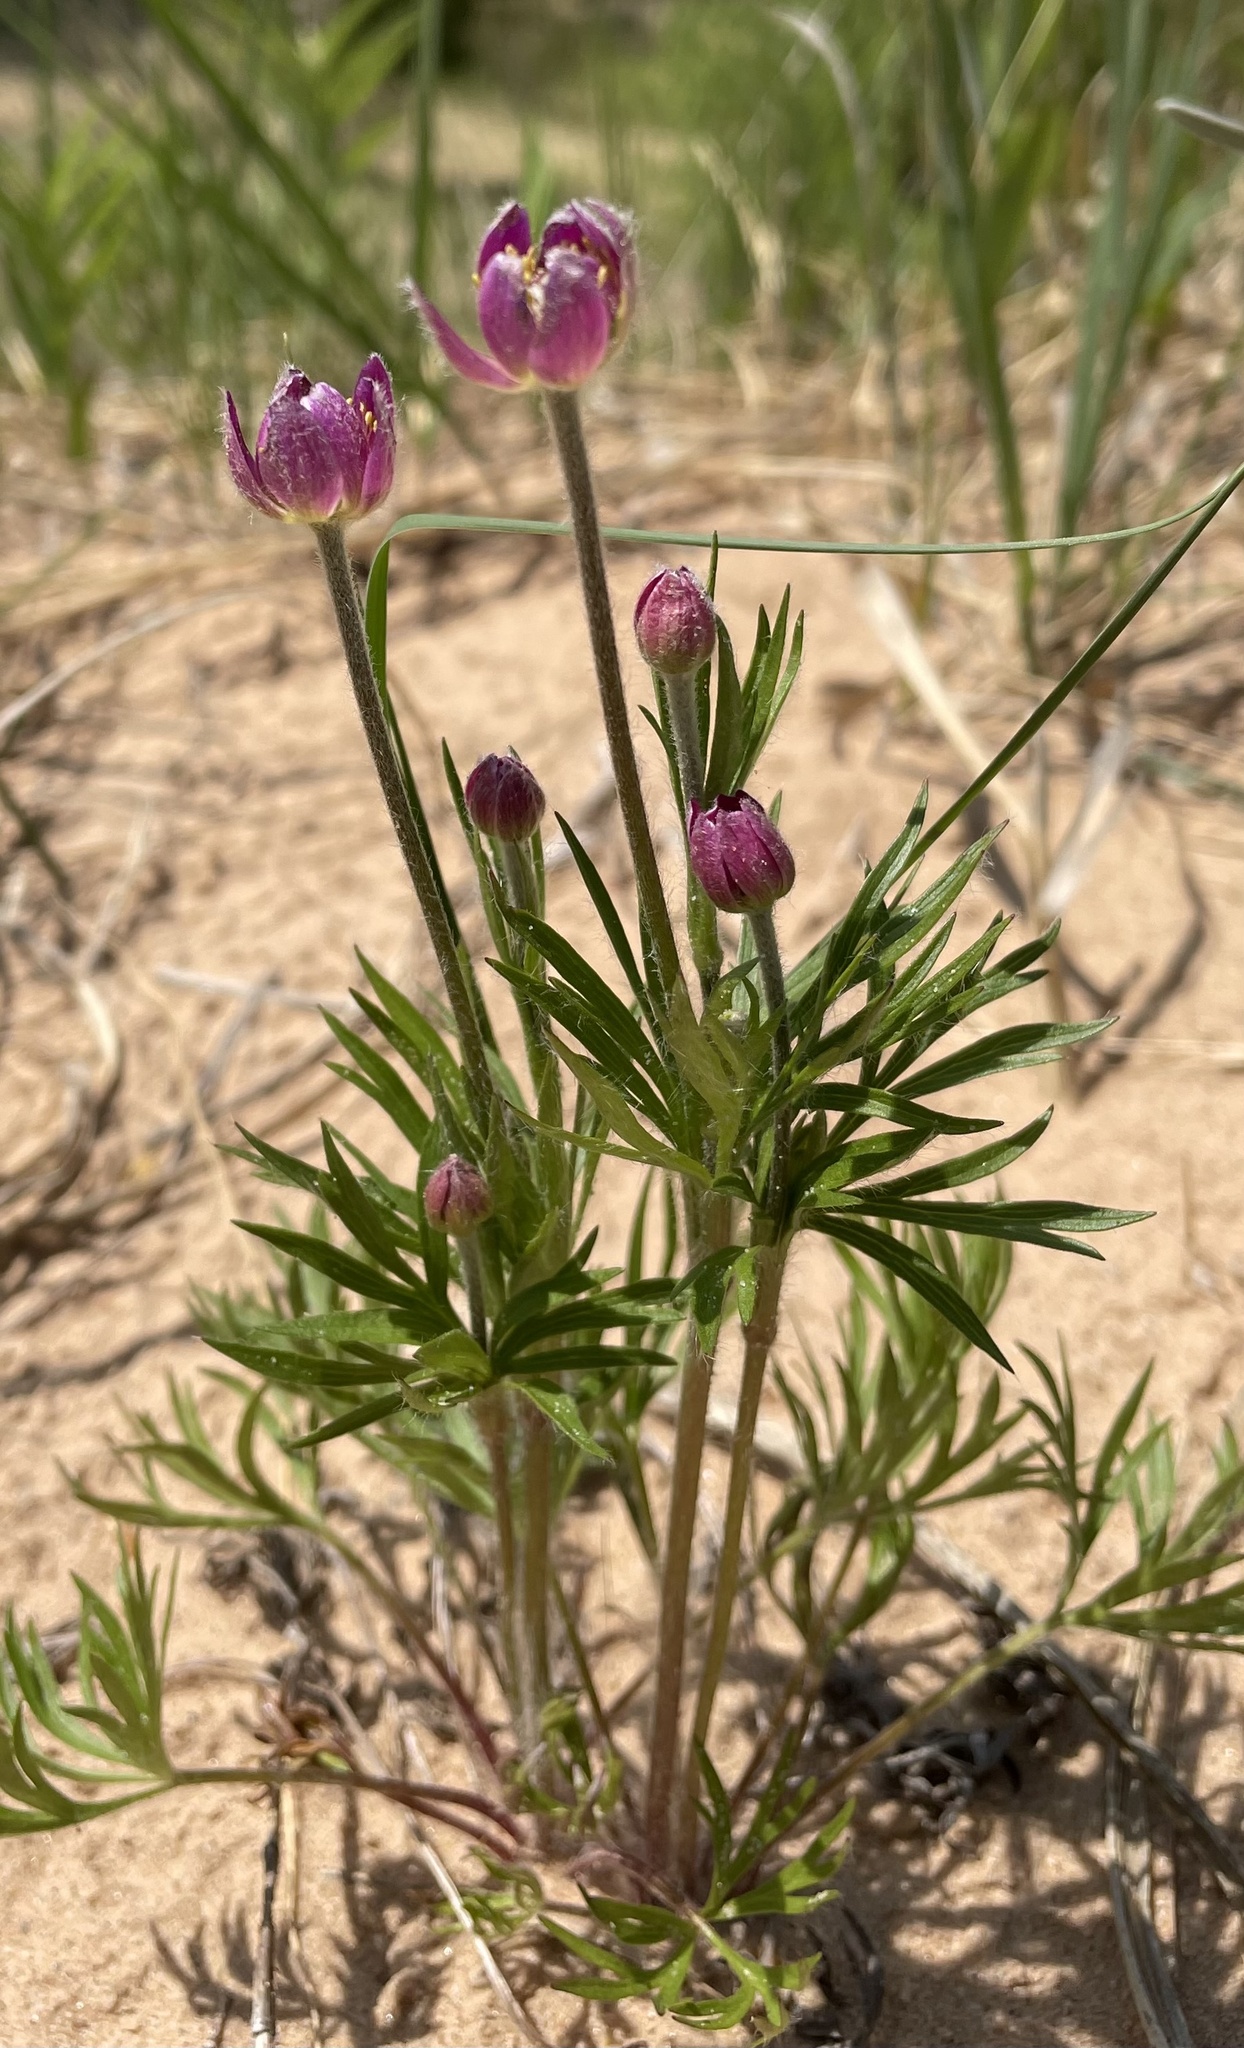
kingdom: Plantae
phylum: Tracheophyta
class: Magnoliopsida
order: Ranunculales
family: Ranunculaceae
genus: Anemone
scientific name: Anemone multifida
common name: Bird's-foot anemone
